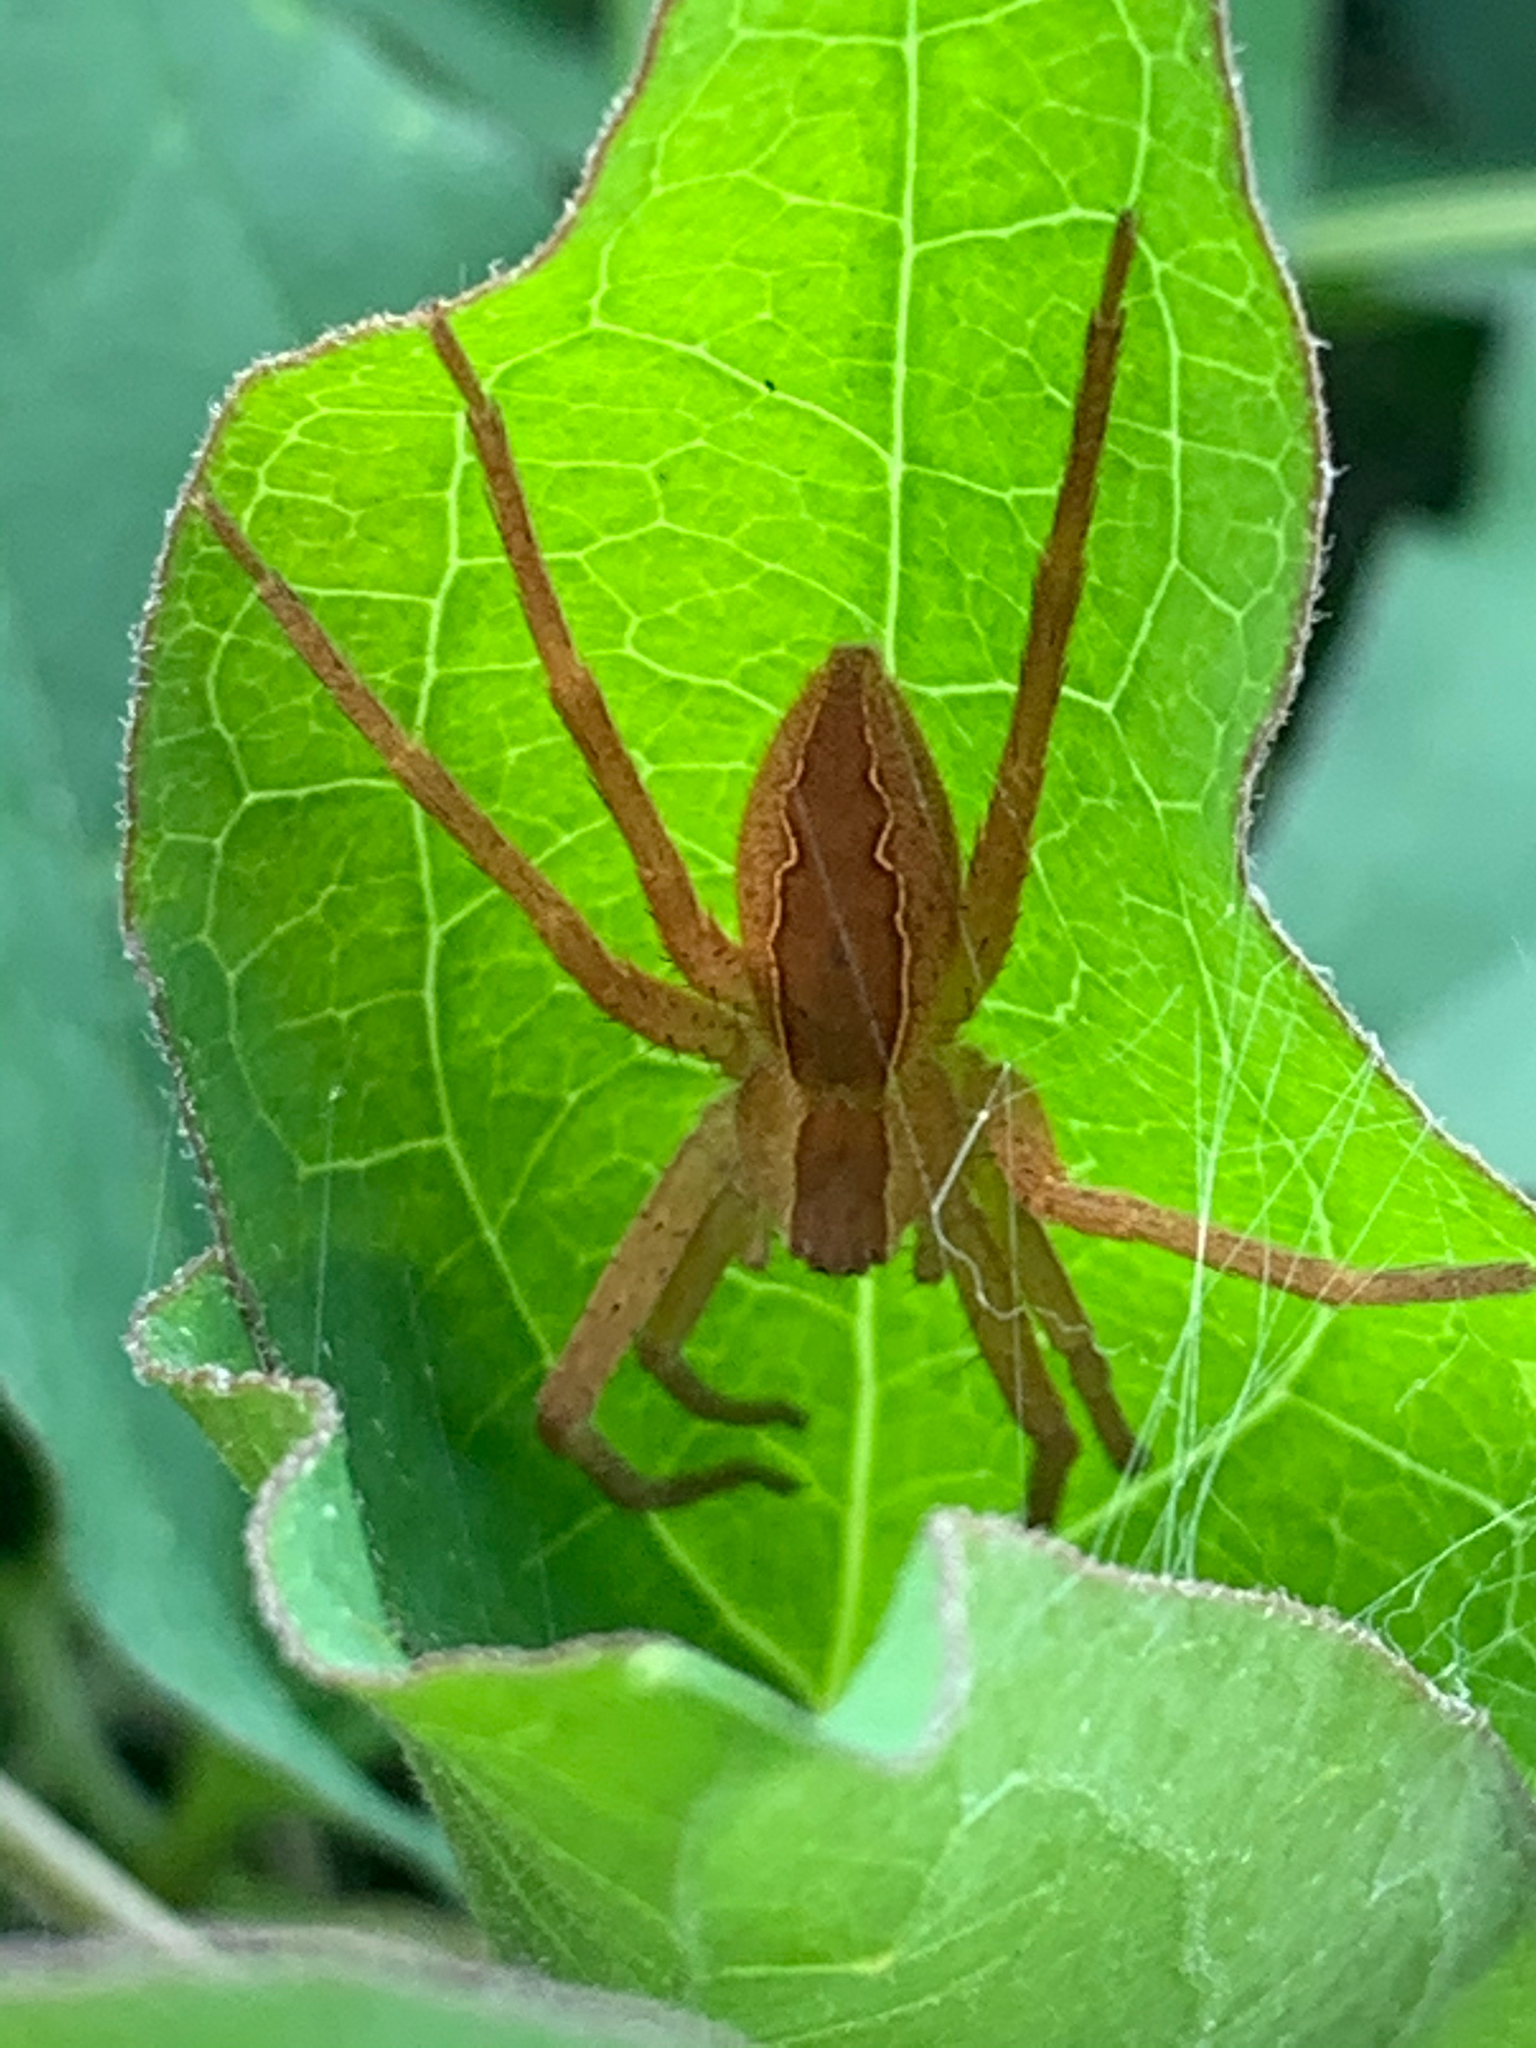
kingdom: Animalia
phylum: Arthropoda
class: Arachnida
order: Araneae
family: Pisauridae
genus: Pisaurina
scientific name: Pisaurina mira
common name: American nursery web spider
